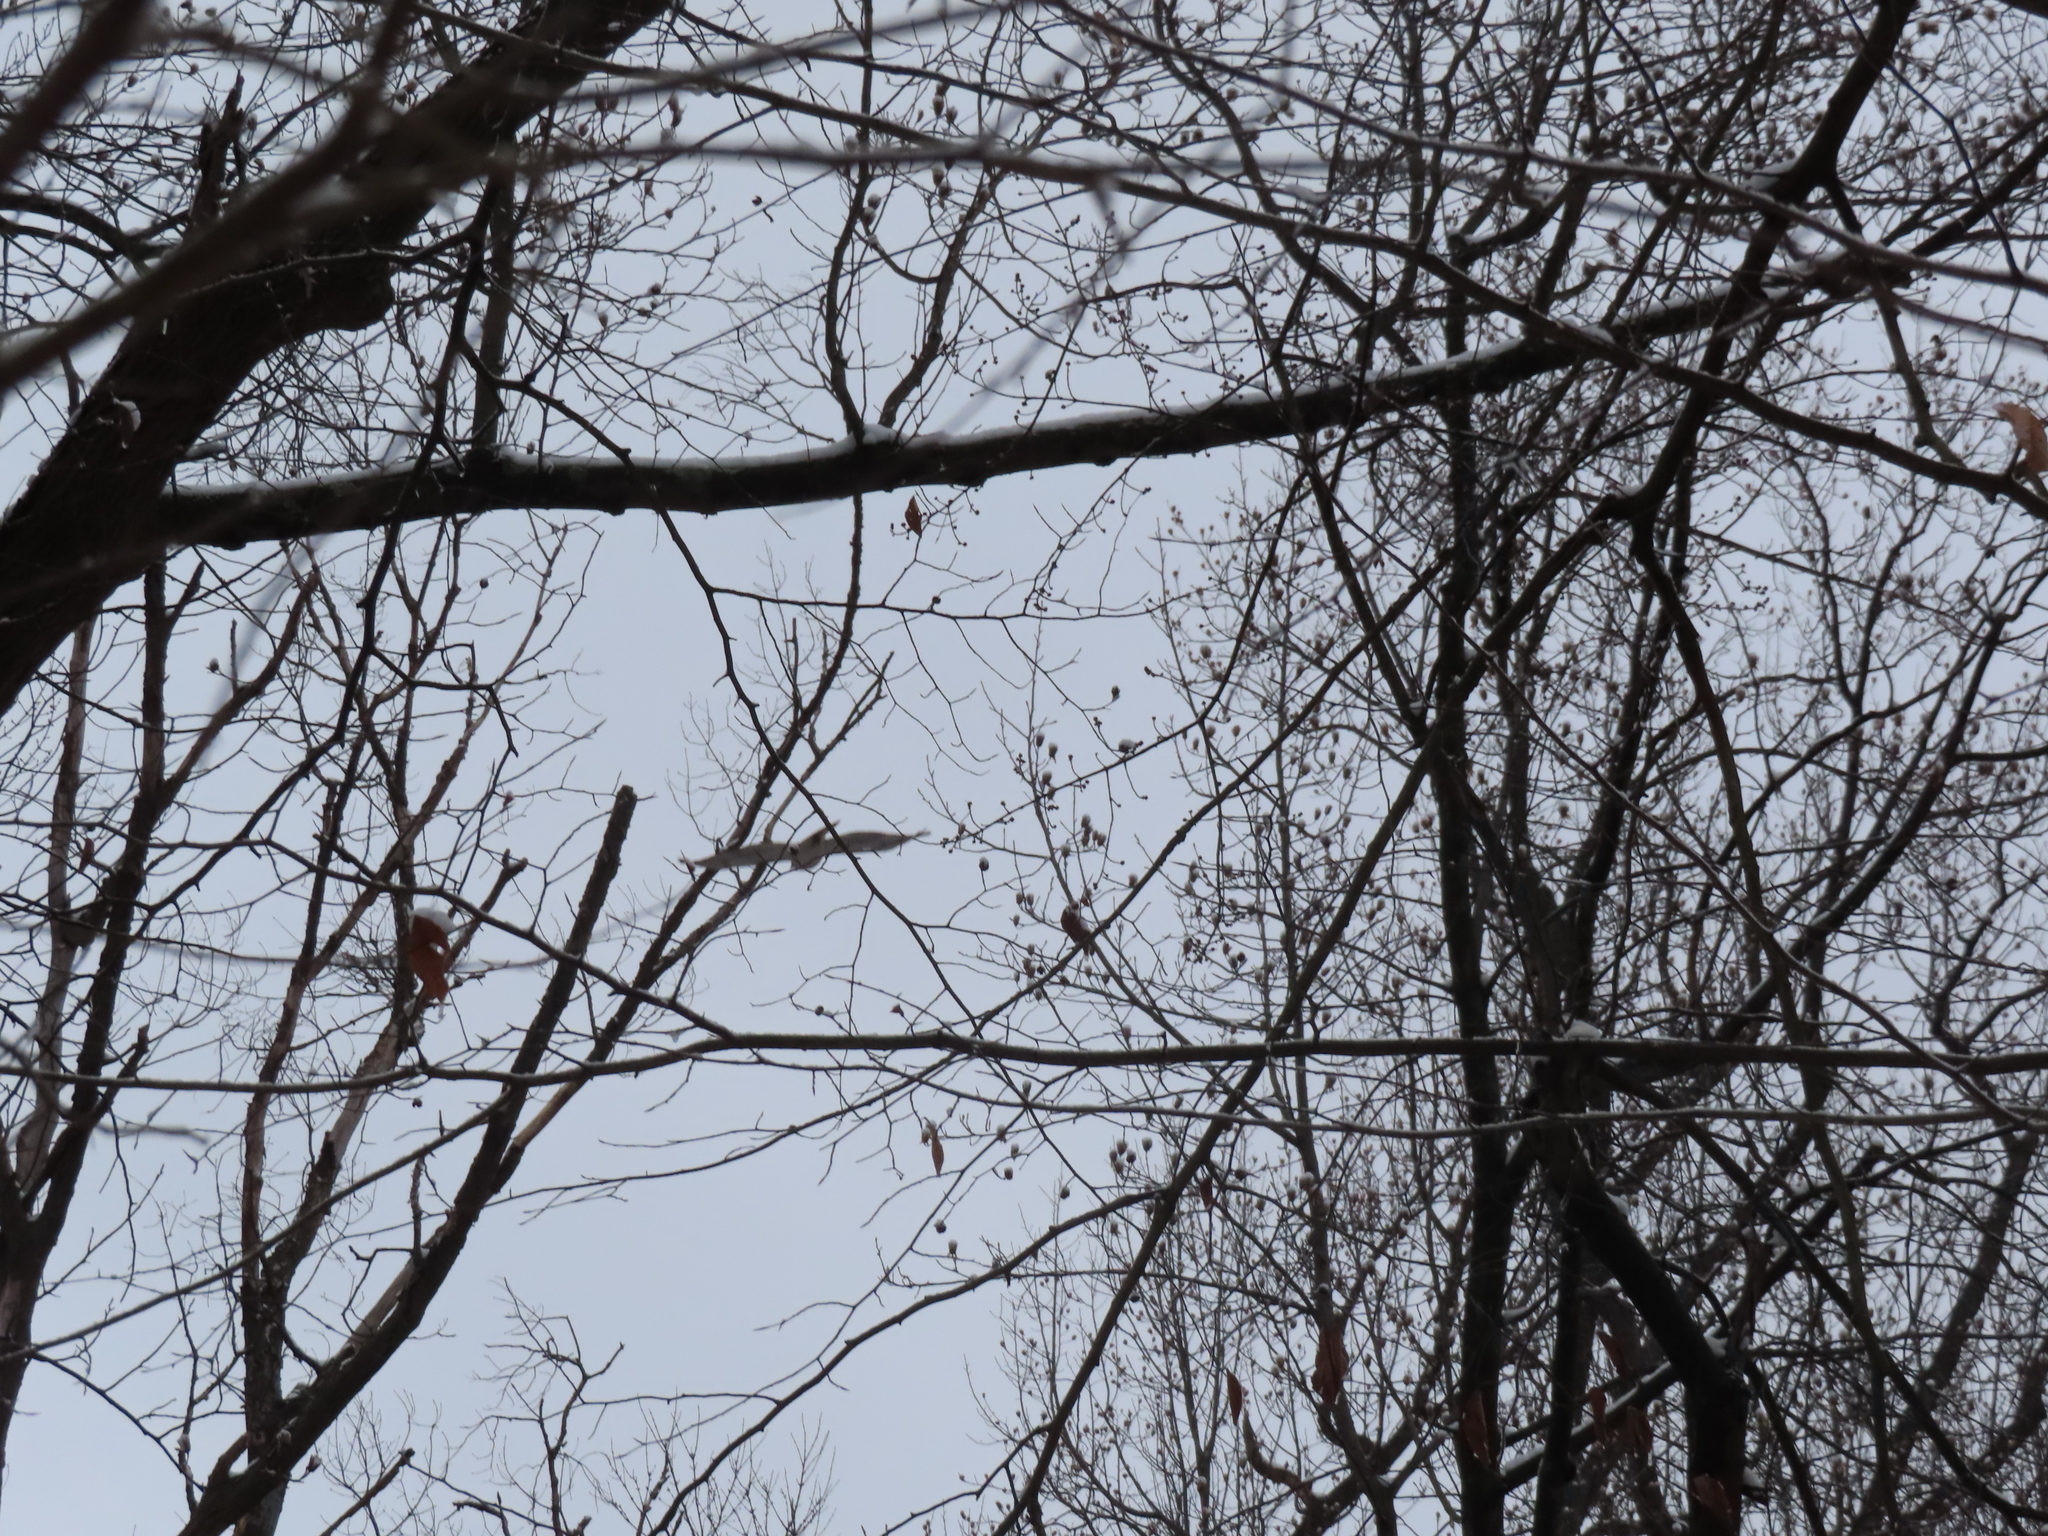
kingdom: Animalia
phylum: Chordata
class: Aves
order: Accipitriformes
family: Accipitridae
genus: Buteo
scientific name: Buteo jamaicensis
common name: Red-tailed hawk
